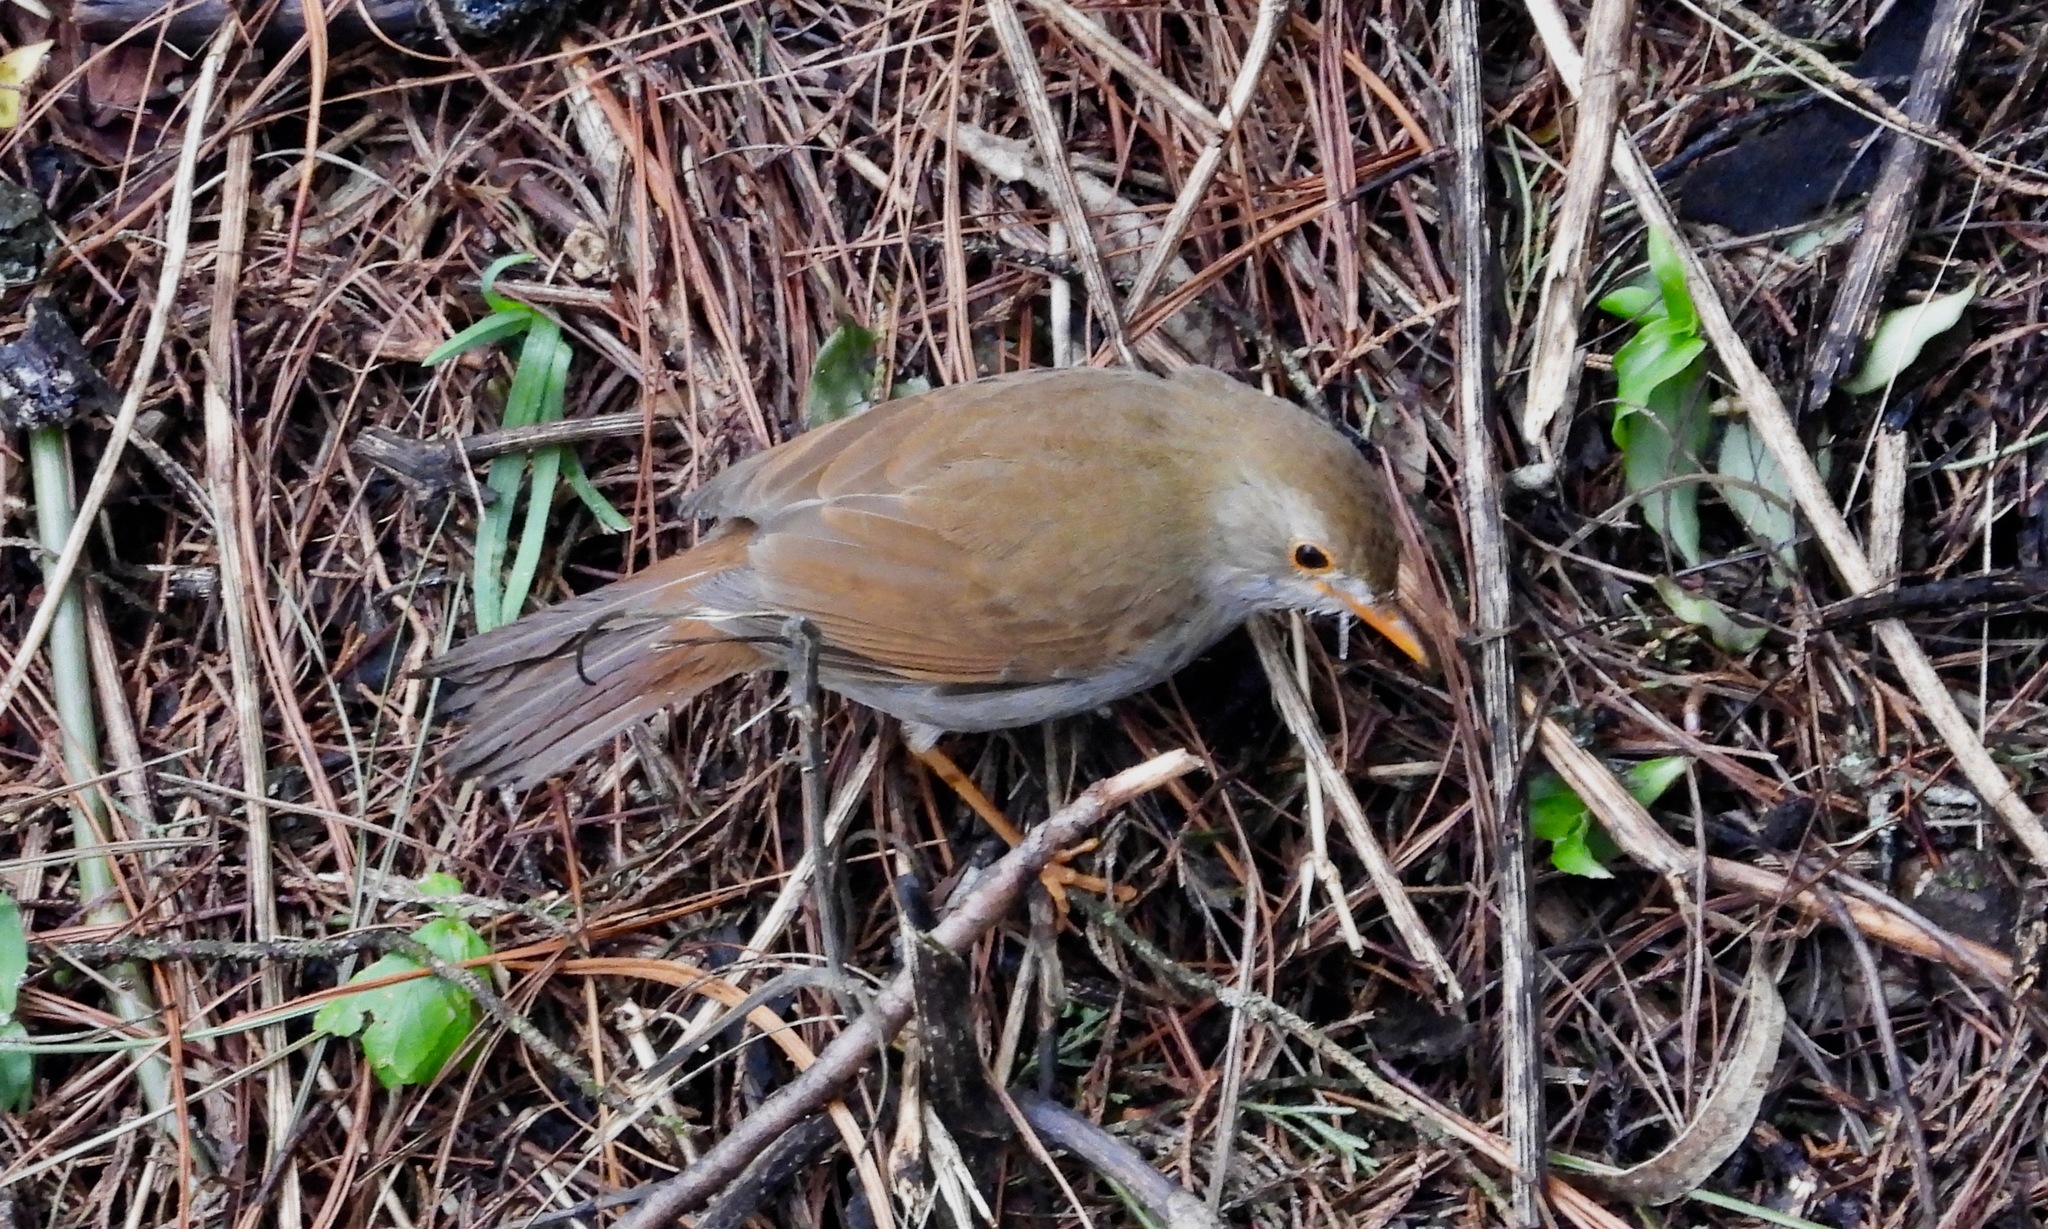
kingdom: Animalia
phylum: Chordata
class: Aves
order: Passeriformes
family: Turdidae
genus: Catharus
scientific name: Catharus aurantiirostris
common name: Orange-billed nightingale-thrush
